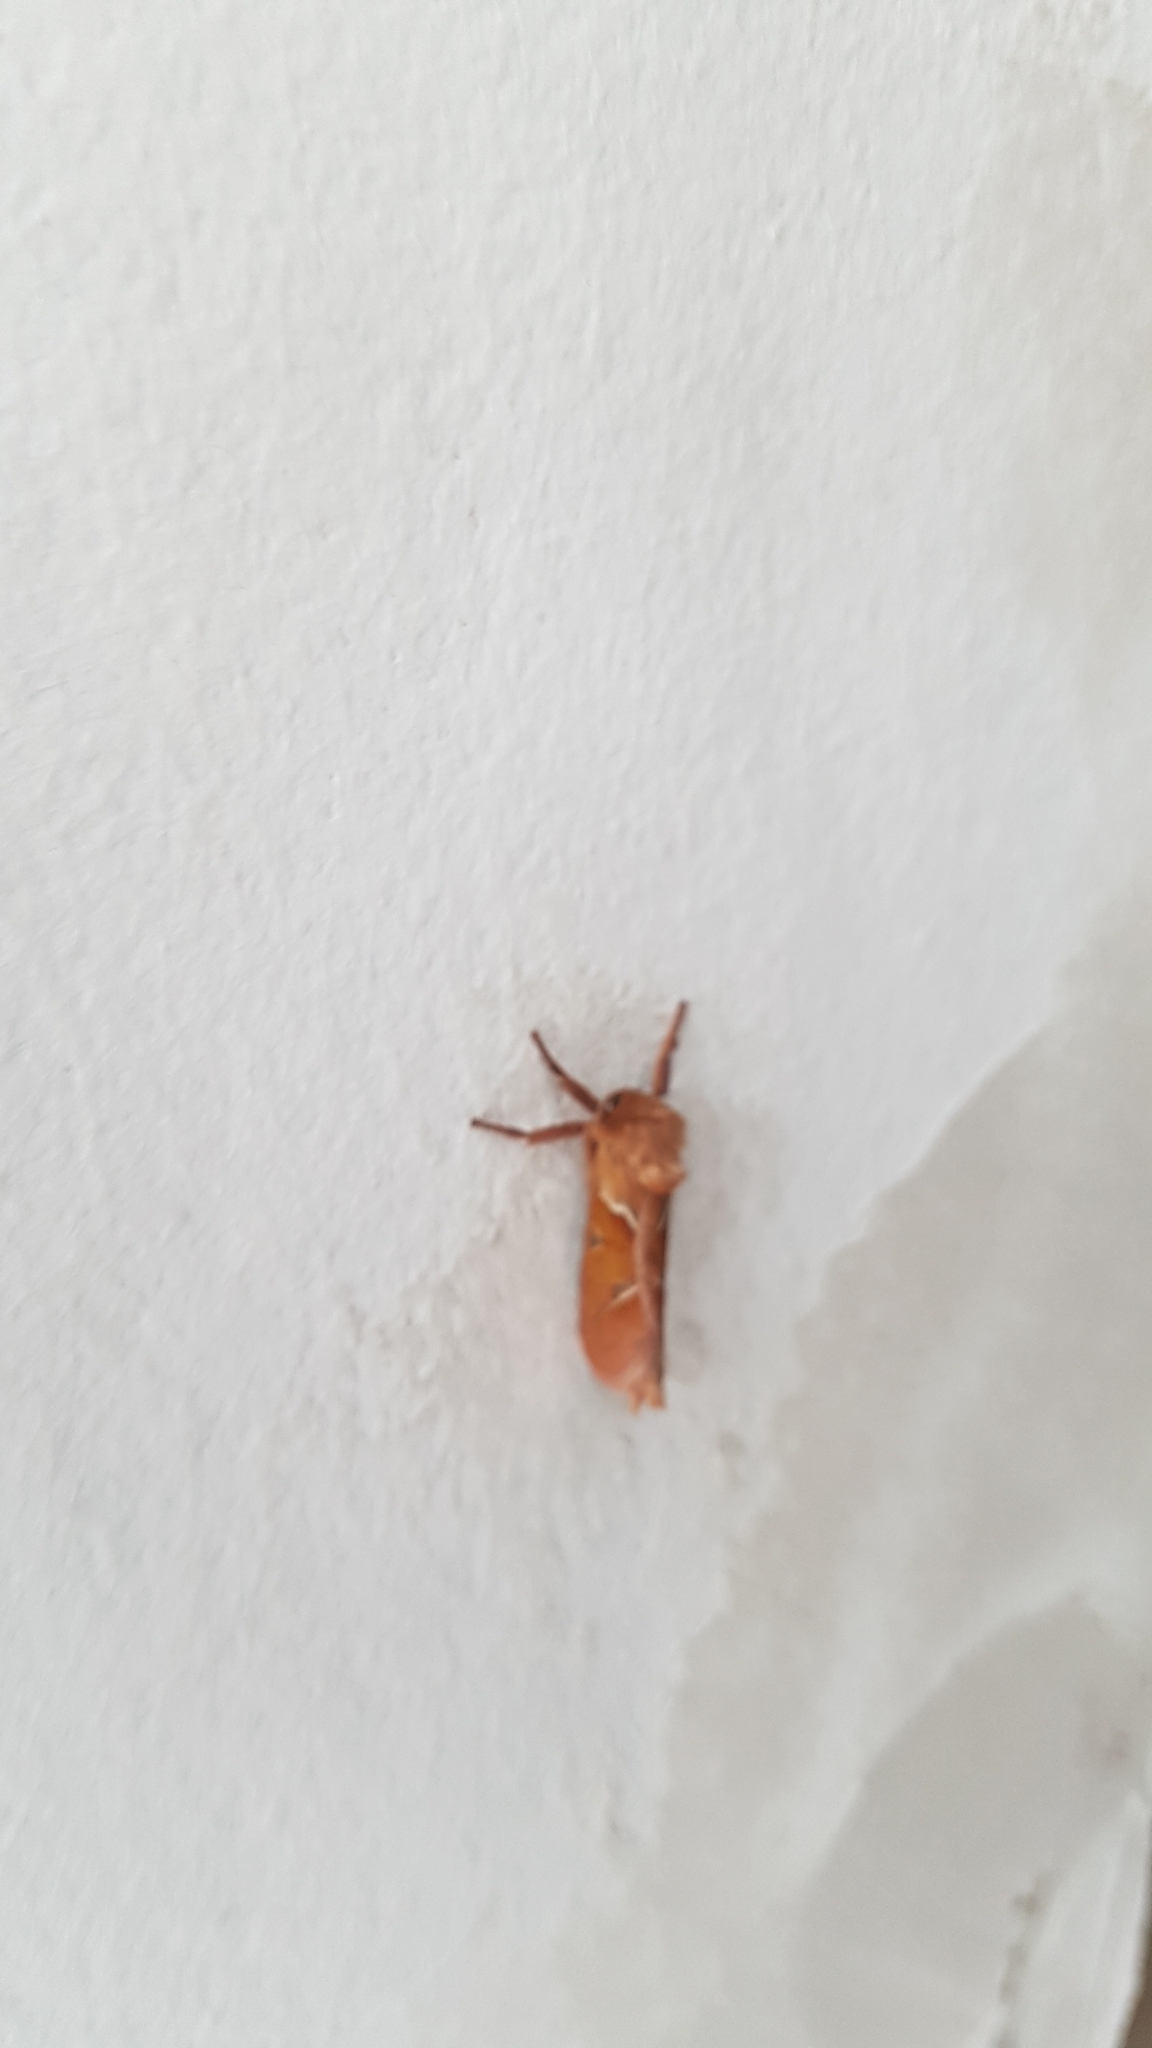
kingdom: Animalia
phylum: Arthropoda
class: Insecta
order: Lepidoptera
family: Hepialidae
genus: Triodia
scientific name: Triodia sylvina
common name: Orange swift
